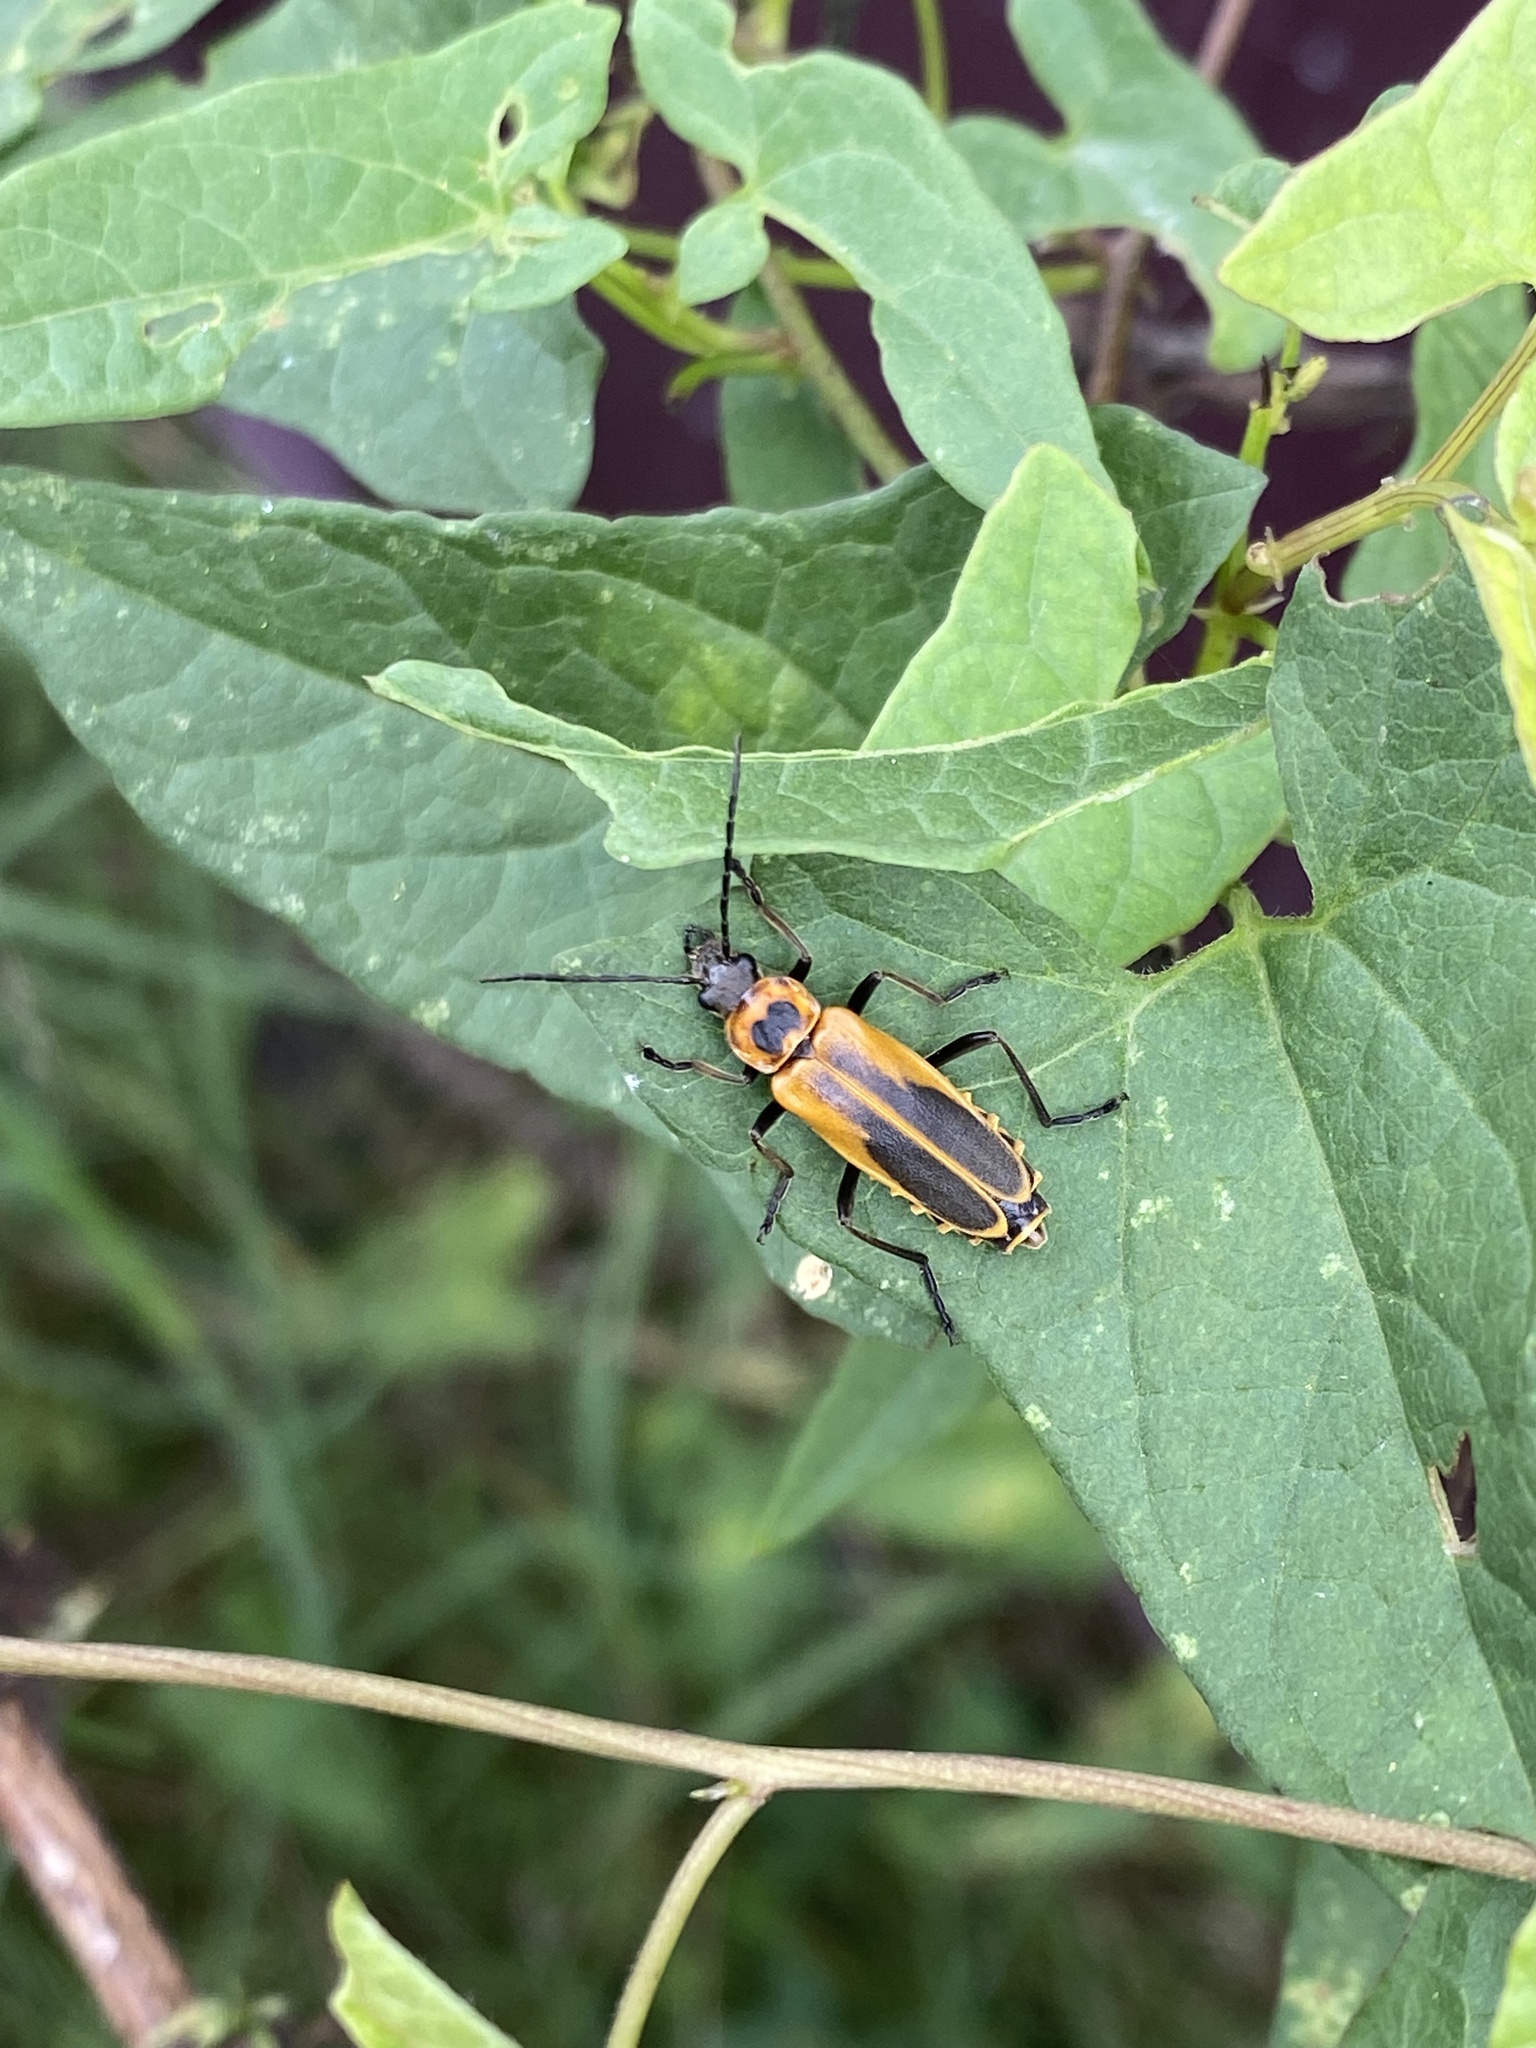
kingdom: Animalia
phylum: Arthropoda
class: Insecta
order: Coleoptera
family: Cantharidae
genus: Chauliognathus
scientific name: Chauliognathus pensylvanicus
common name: Goldenrod soldier beetle
